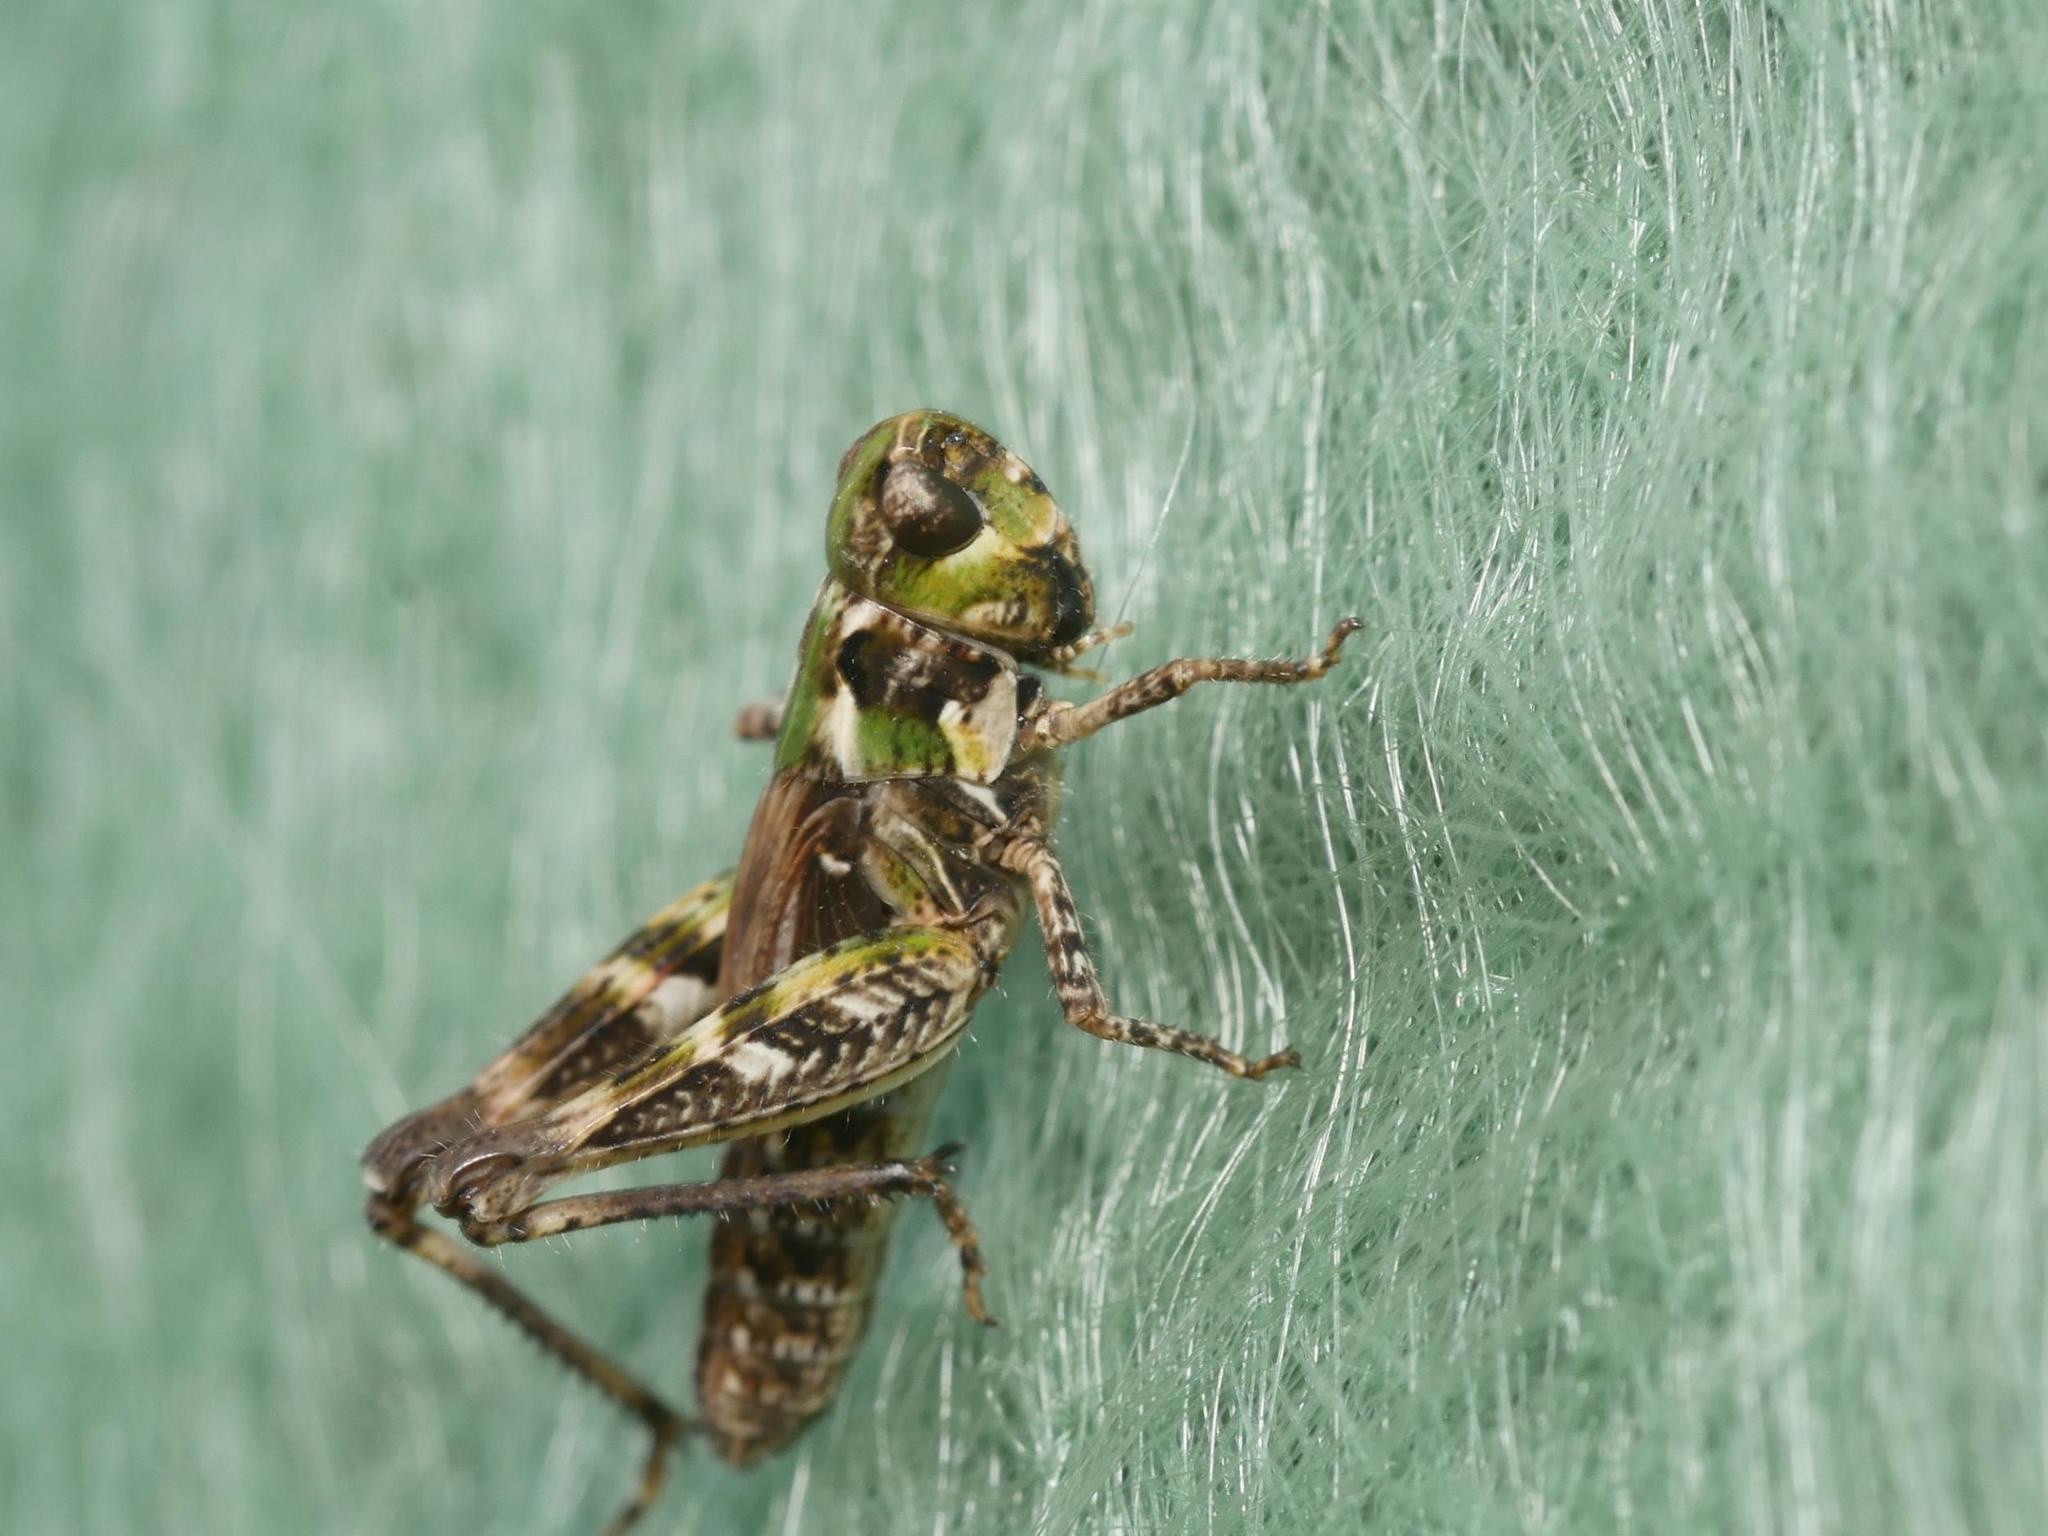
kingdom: Animalia
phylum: Arthropoda
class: Insecta
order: Orthoptera
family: Acrididae
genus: Myrmeleotettix
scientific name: Myrmeleotettix maculatus
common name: Mottled grasshopper
